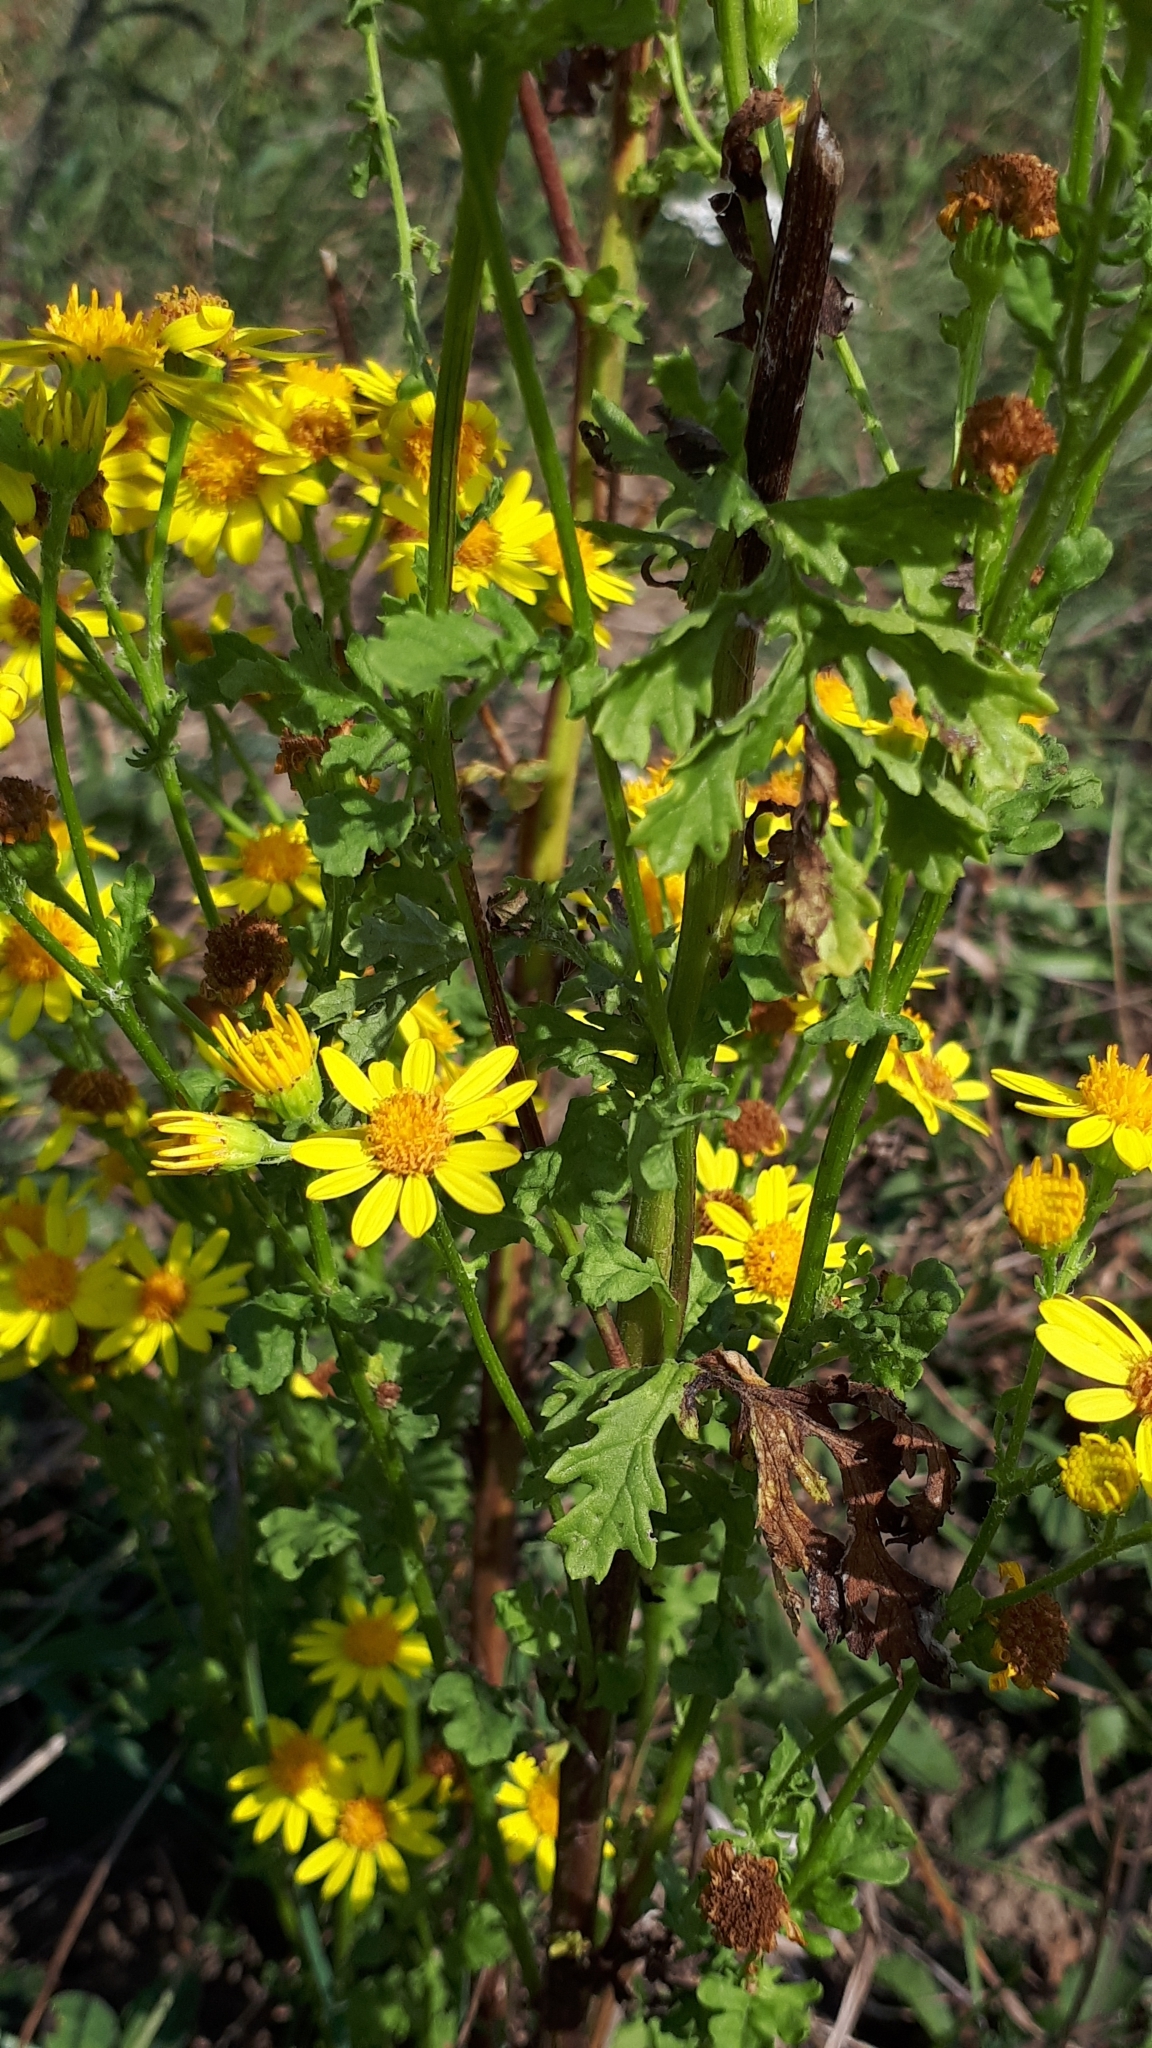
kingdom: Plantae
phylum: Tracheophyta
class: Magnoliopsida
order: Asterales
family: Asteraceae
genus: Jacobaea
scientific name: Jacobaea vulgaris
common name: Stinking willie
